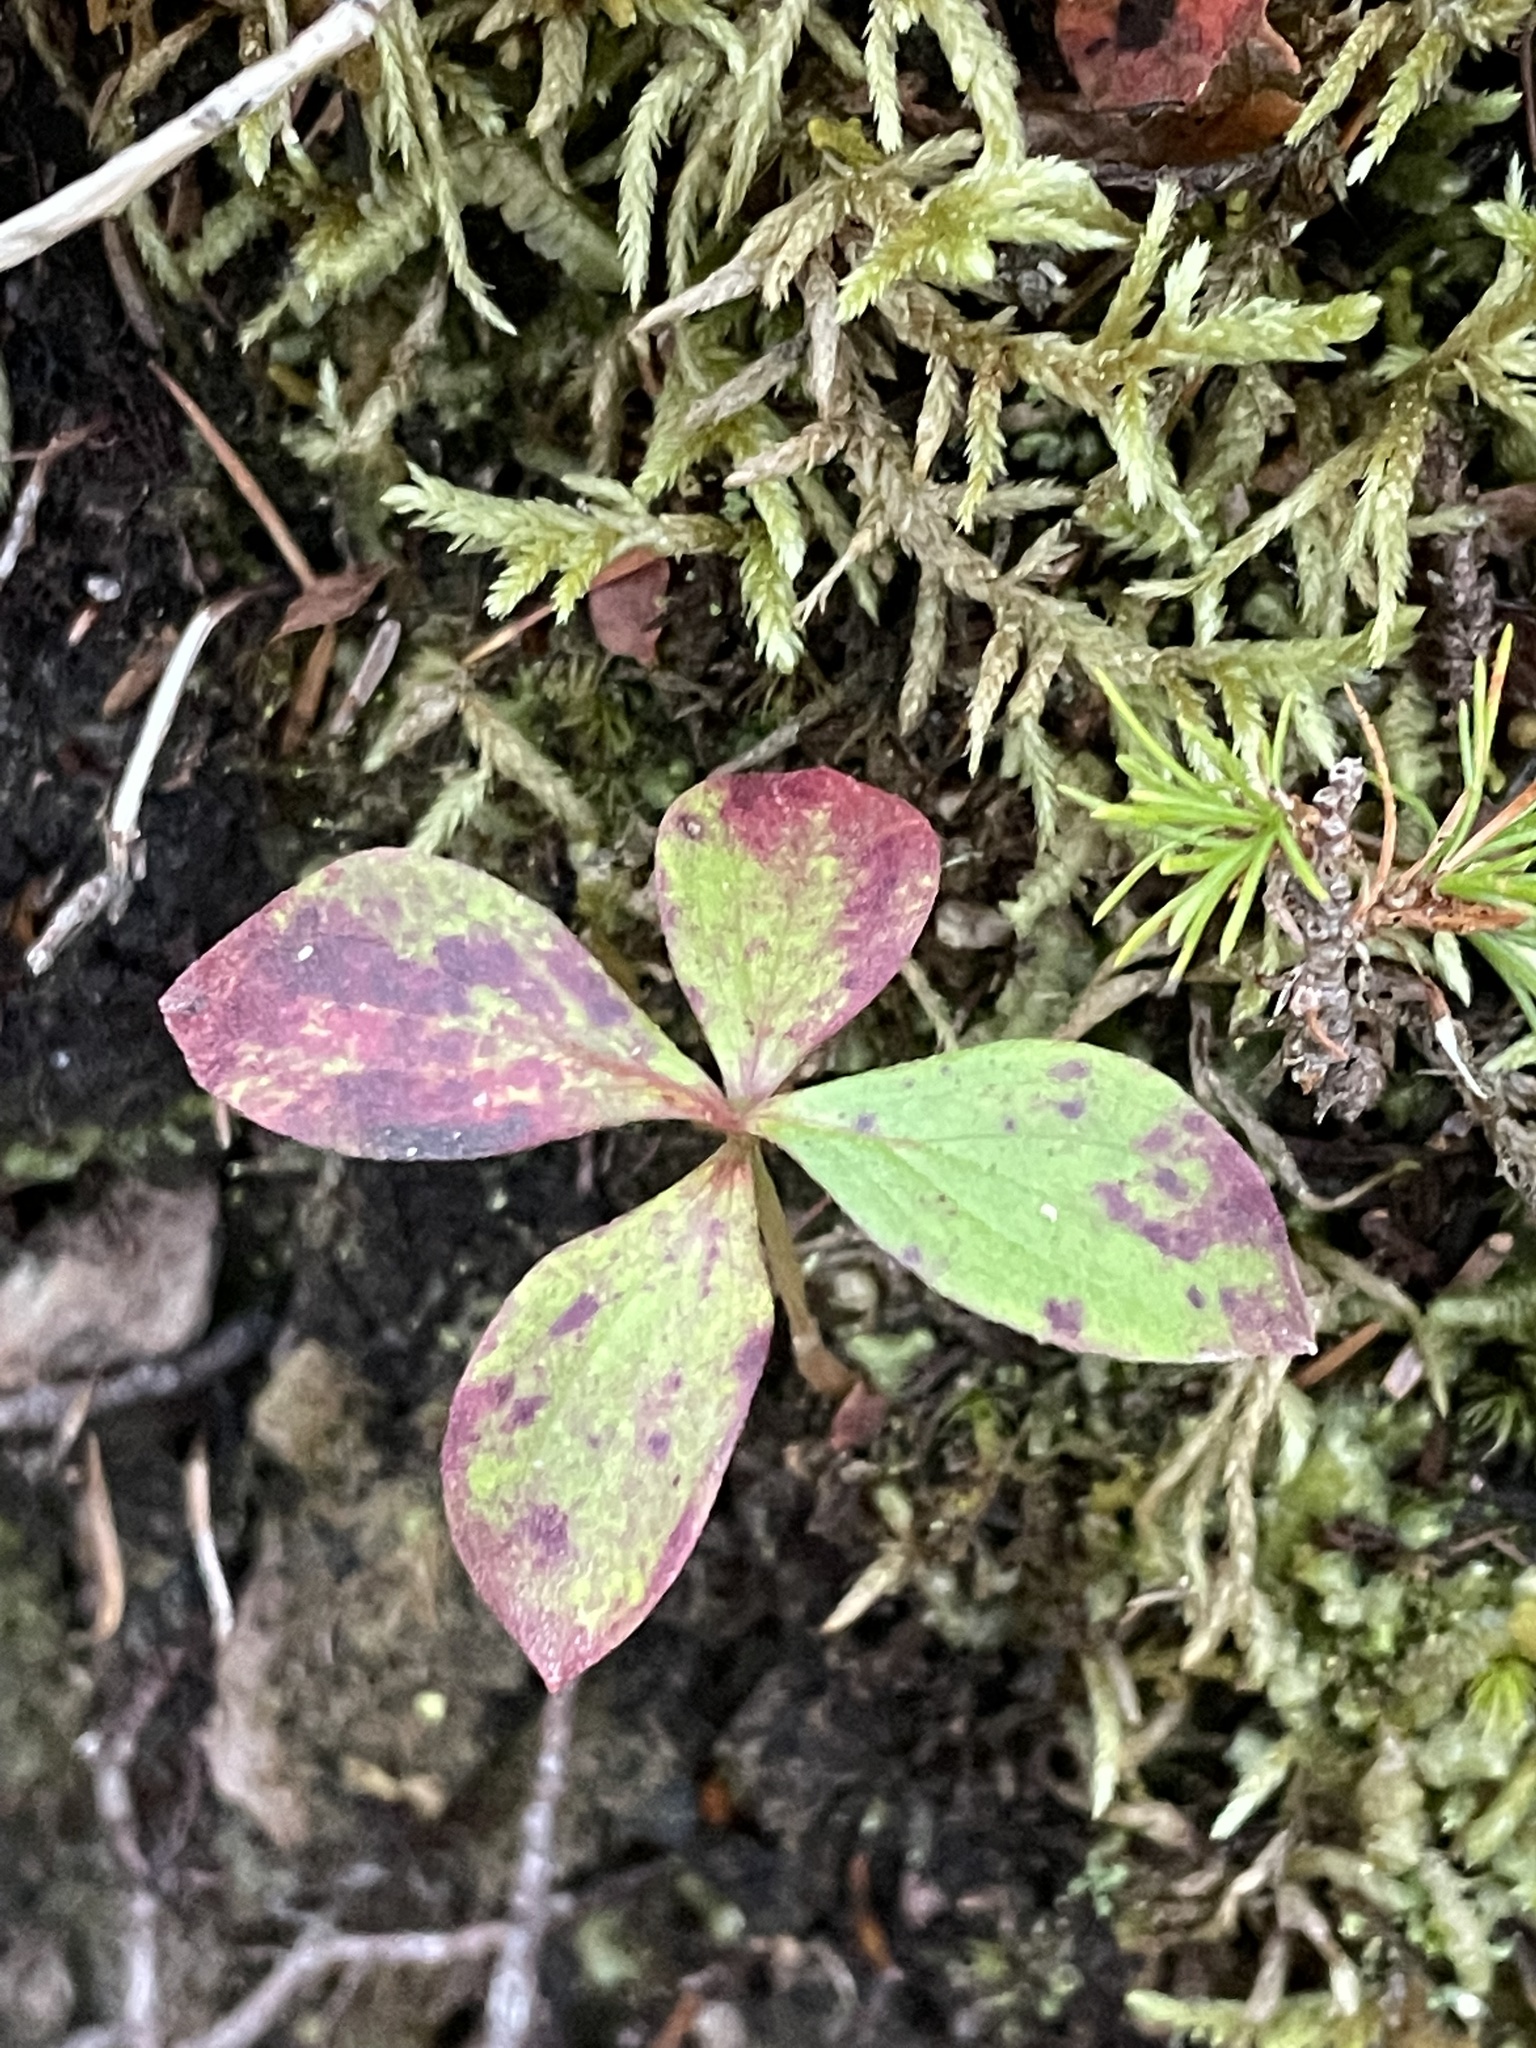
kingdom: Plantae
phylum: Tracheophyta
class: Magnoliopsida
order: Cornales
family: Cornaceae
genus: Cornus
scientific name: Cornus canadensis
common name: Creeping dogwood
